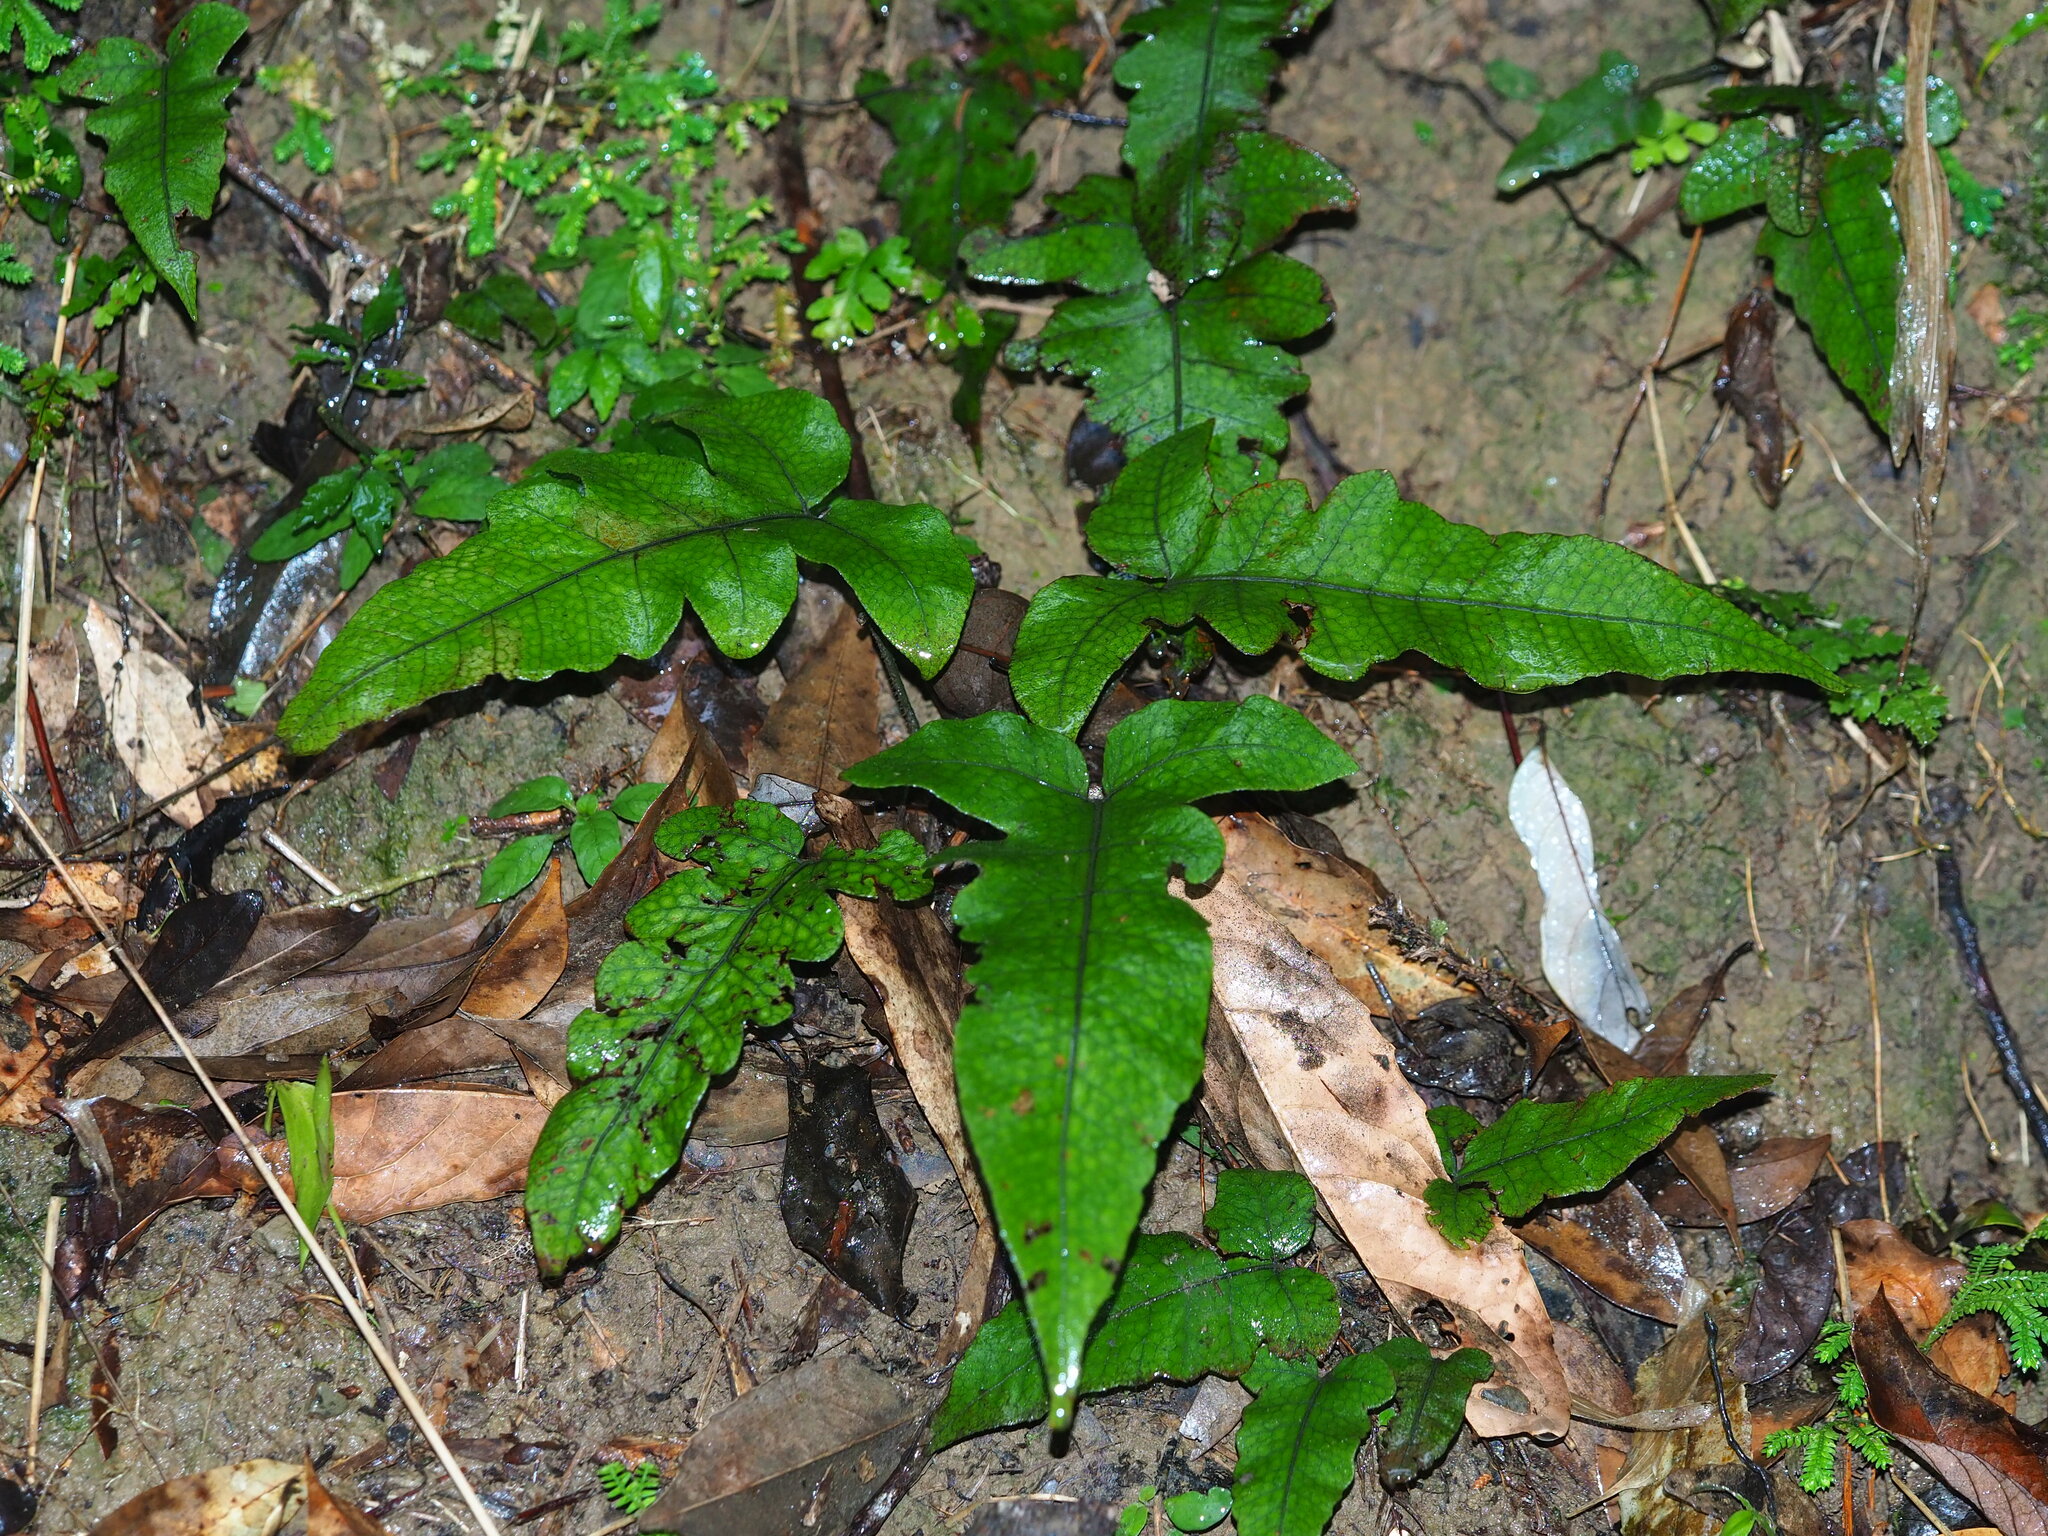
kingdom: Plantae
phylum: Tracheophyta
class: Polypodiopsida
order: Polypodiales
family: Thelypteridaceae
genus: Stegnogramma
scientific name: Stegnogramma wilfordii
